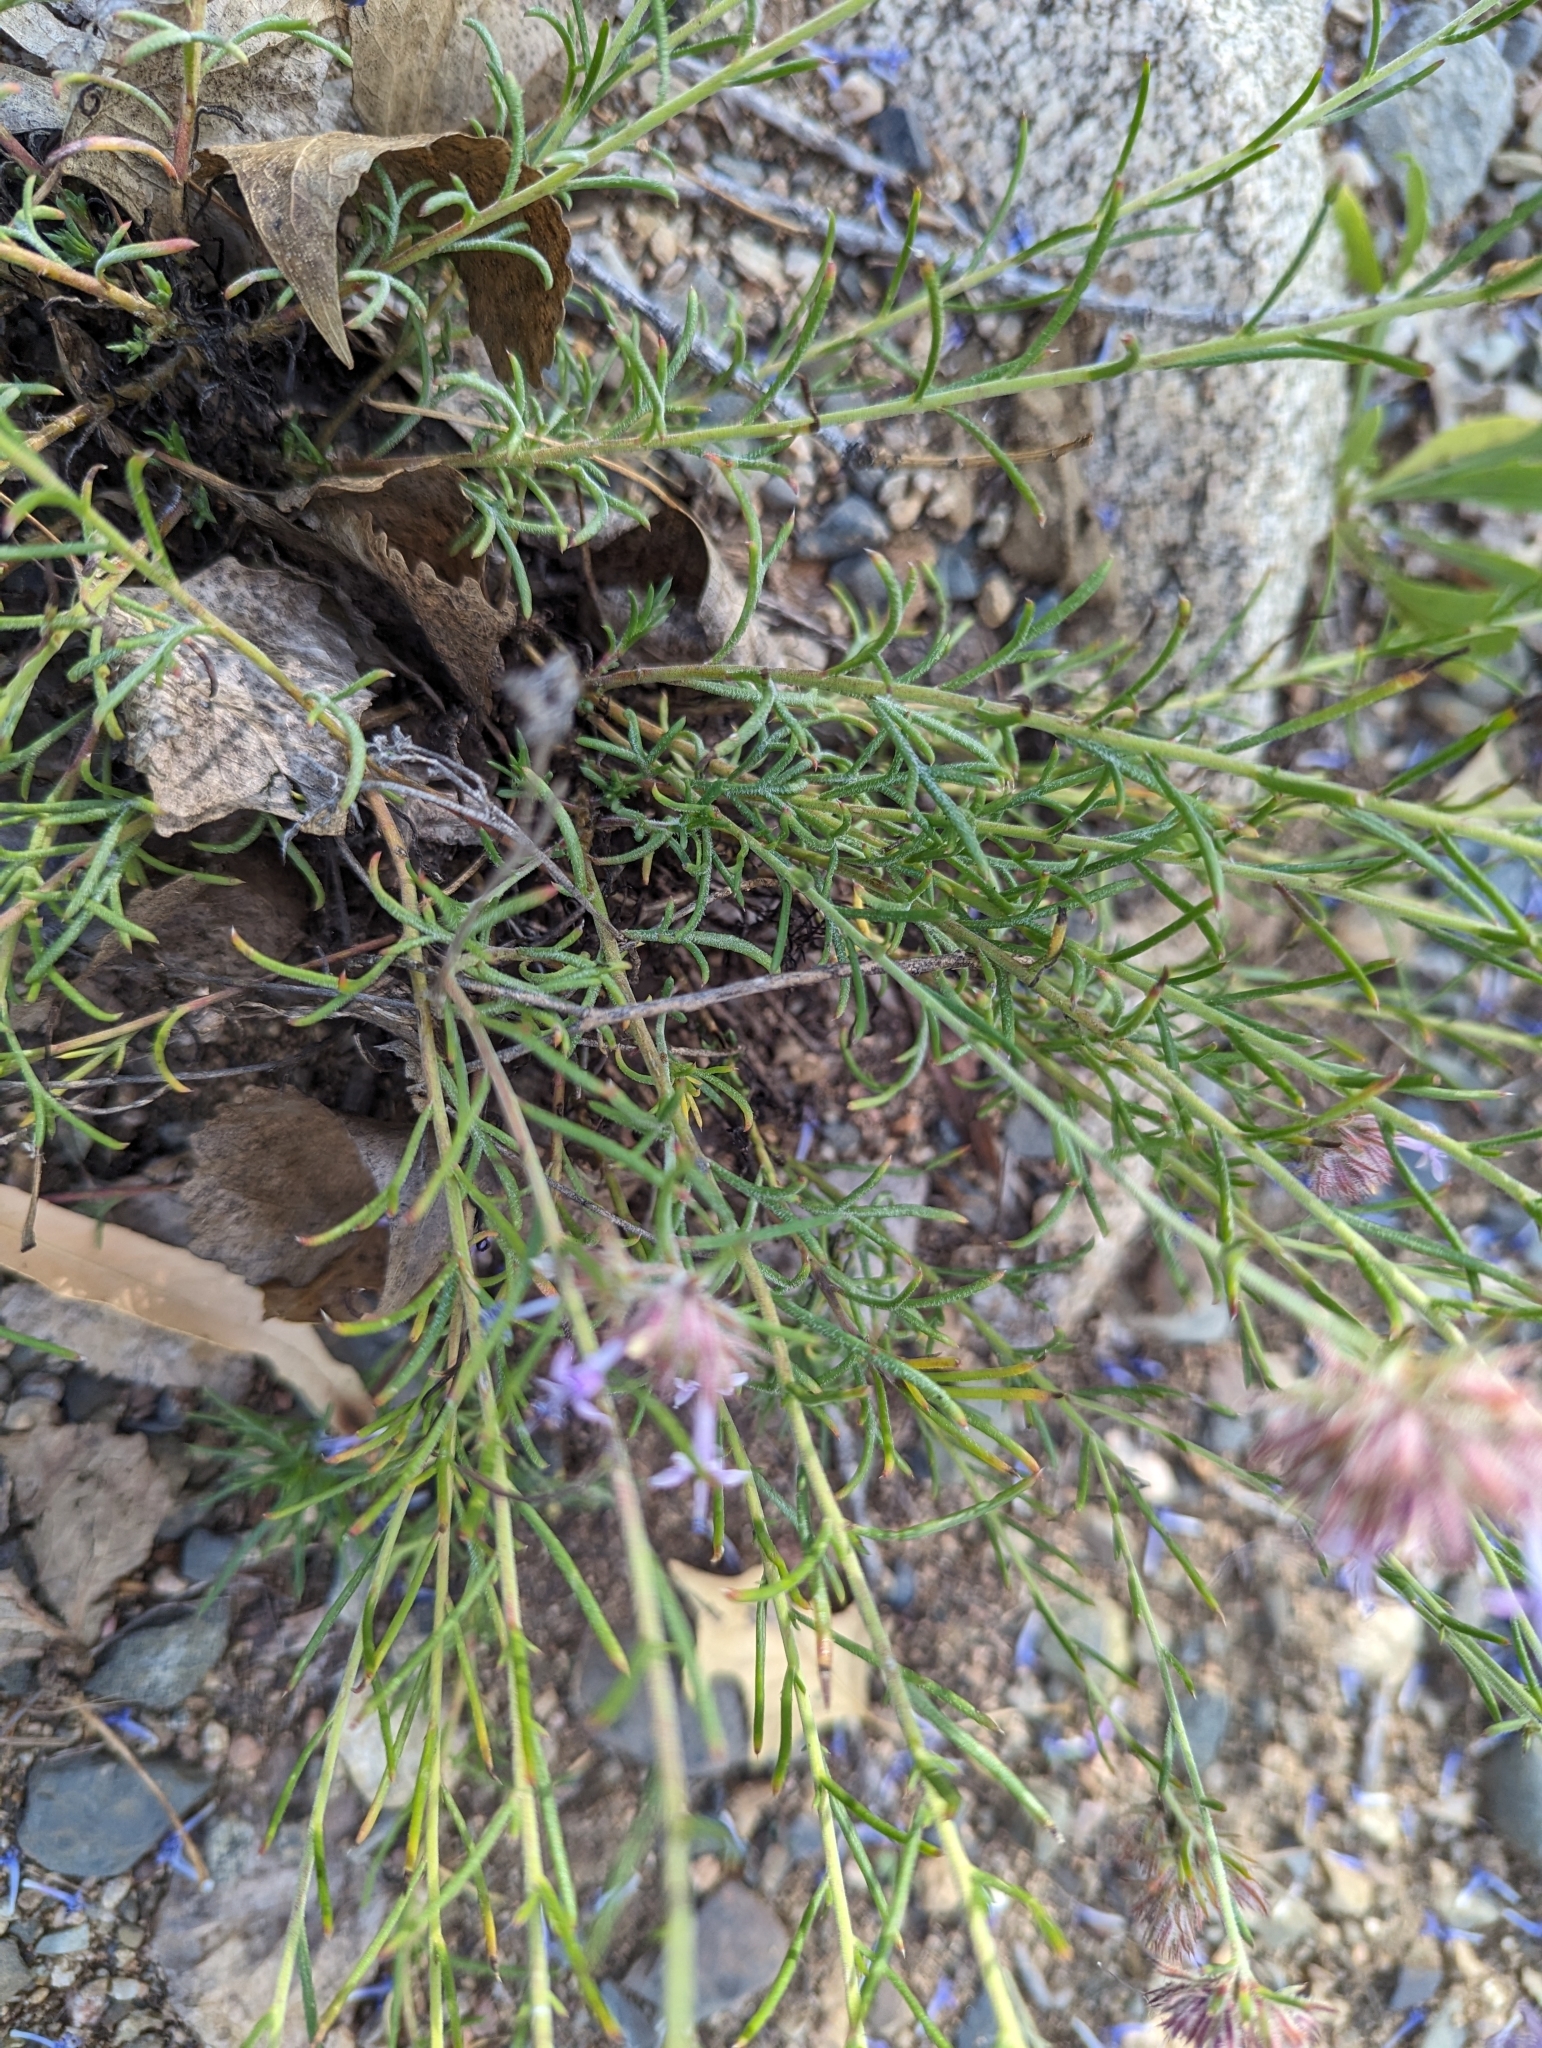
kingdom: Plantae
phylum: Tracheophyta
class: Magnoliopsida
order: Ericales
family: Polemoniaceae
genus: Ipomopsis
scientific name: Ipomopsis multiflora
